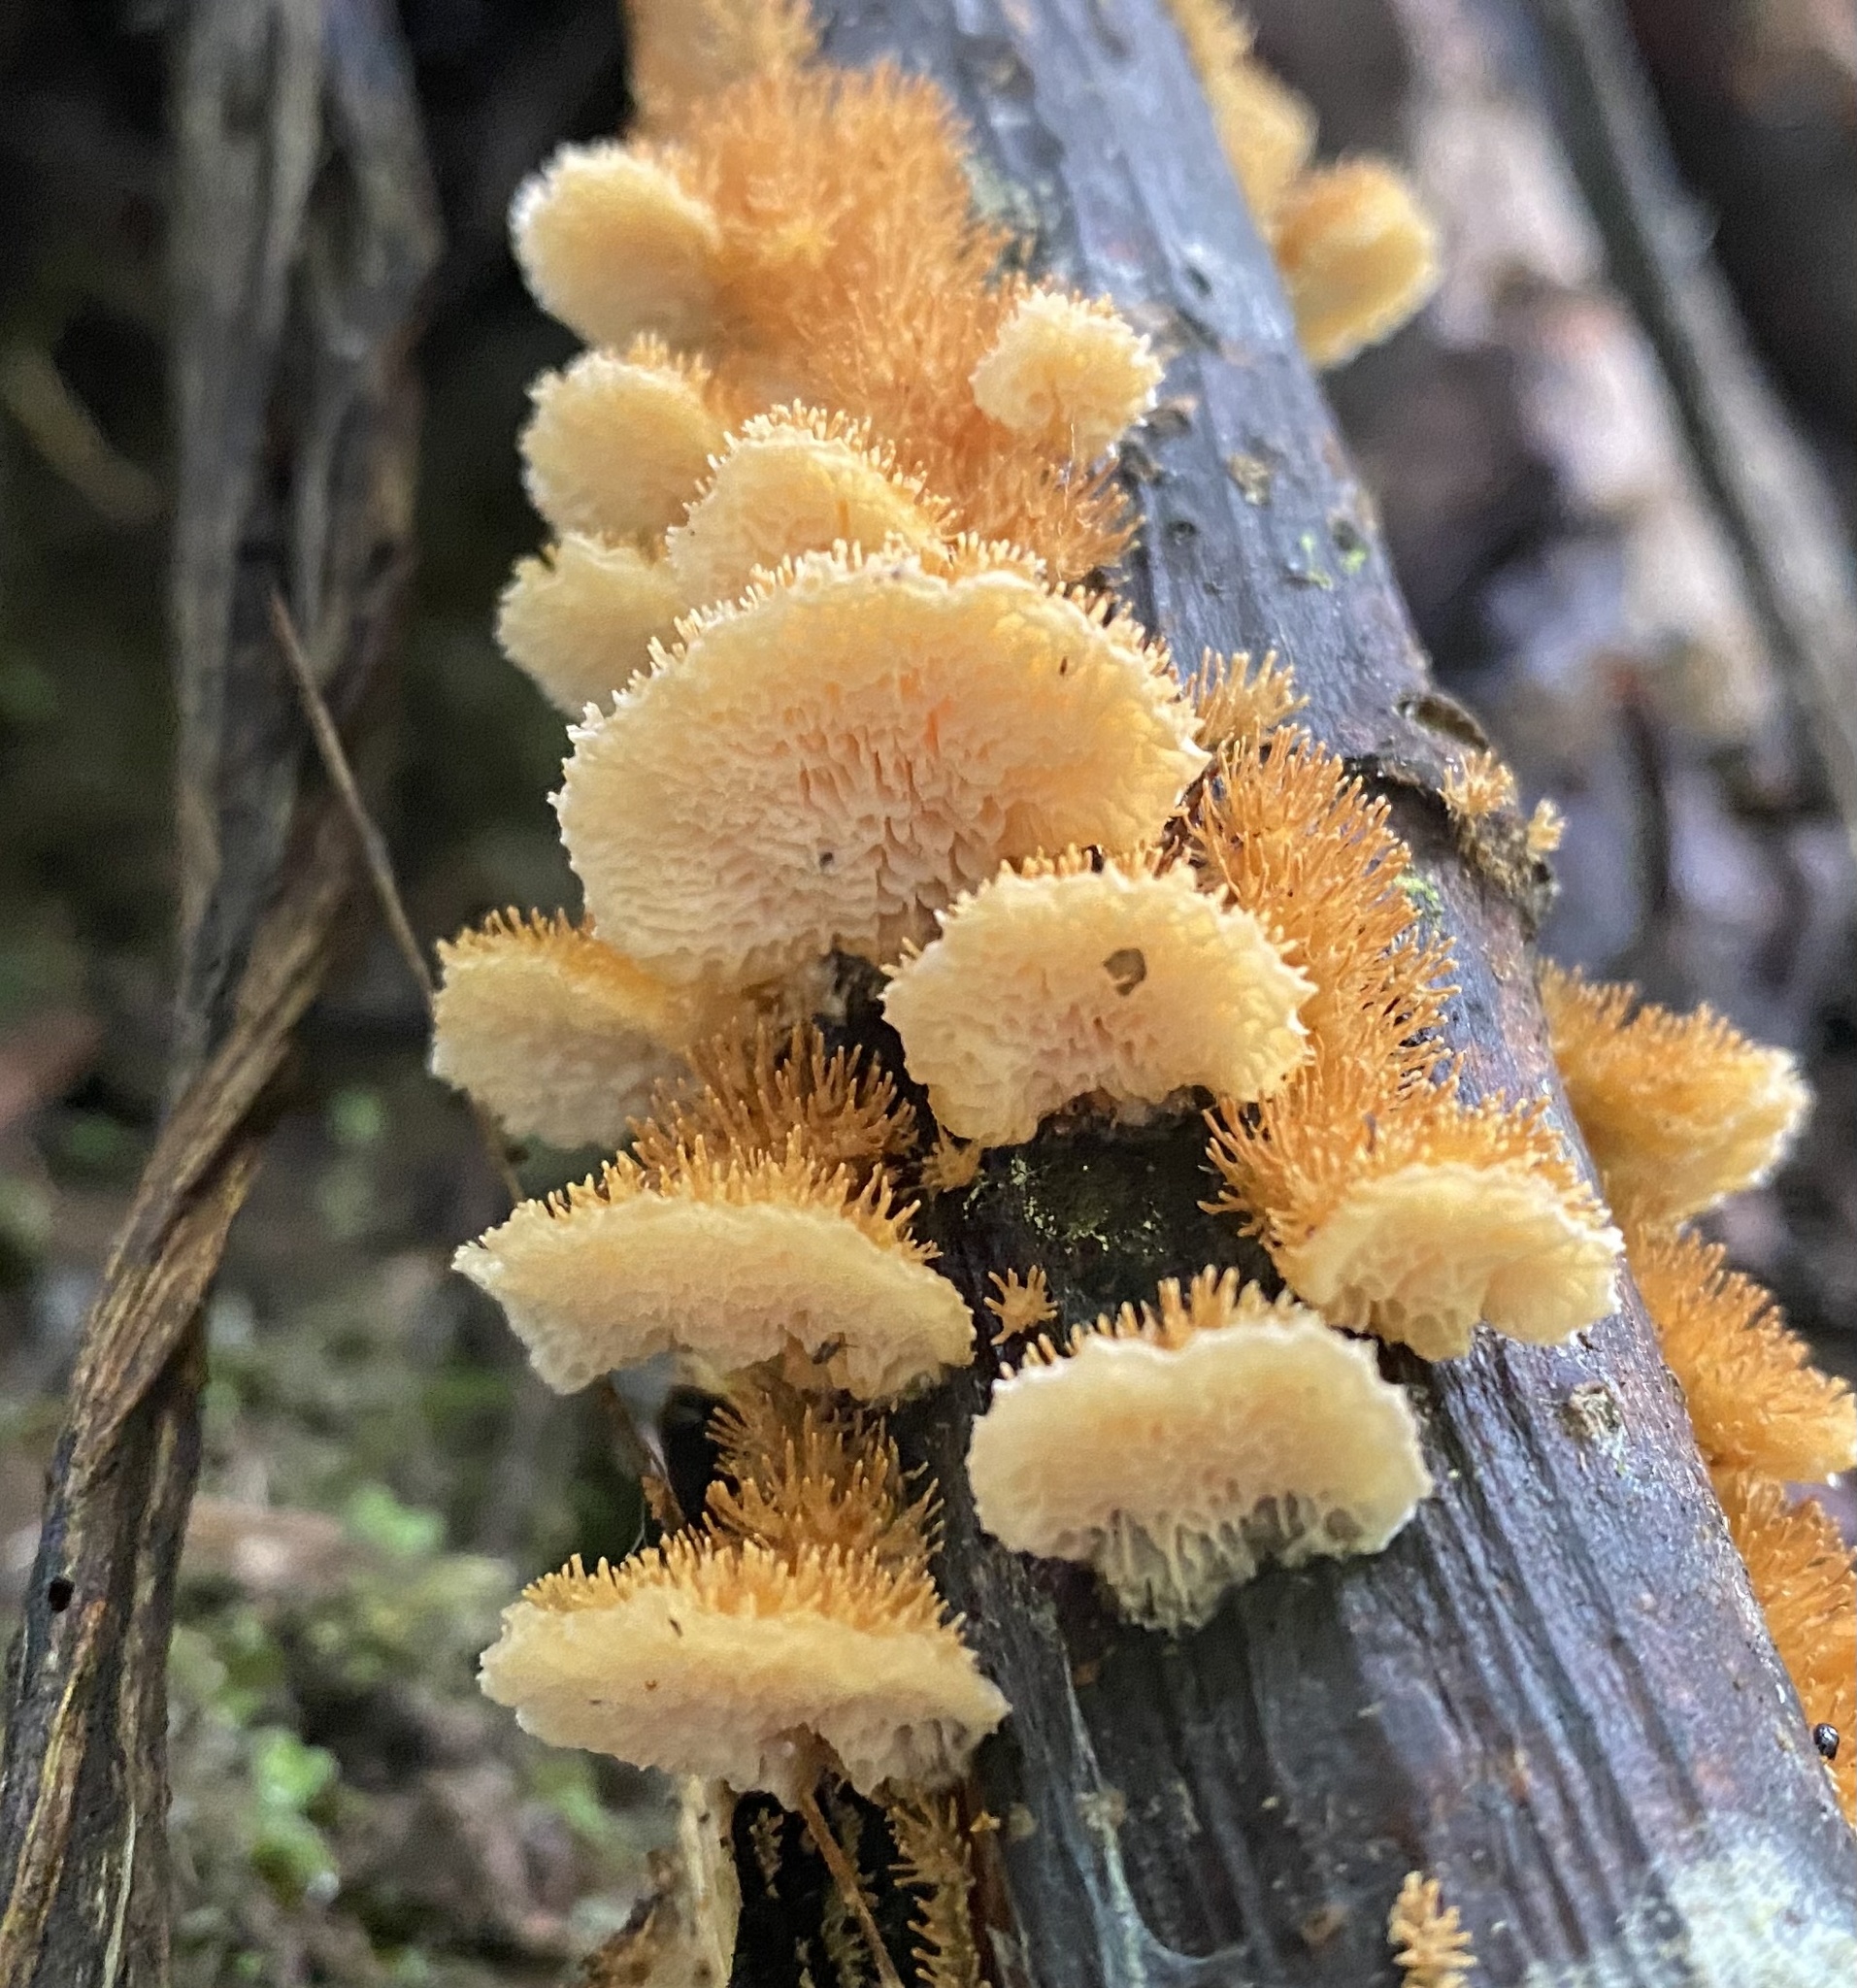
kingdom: Fungi
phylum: Basidiomycota
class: Agaricomycetes
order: Hymenochaetales
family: Schizoporaceae
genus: Echinoporia
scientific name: Echinoporia aculeifera
